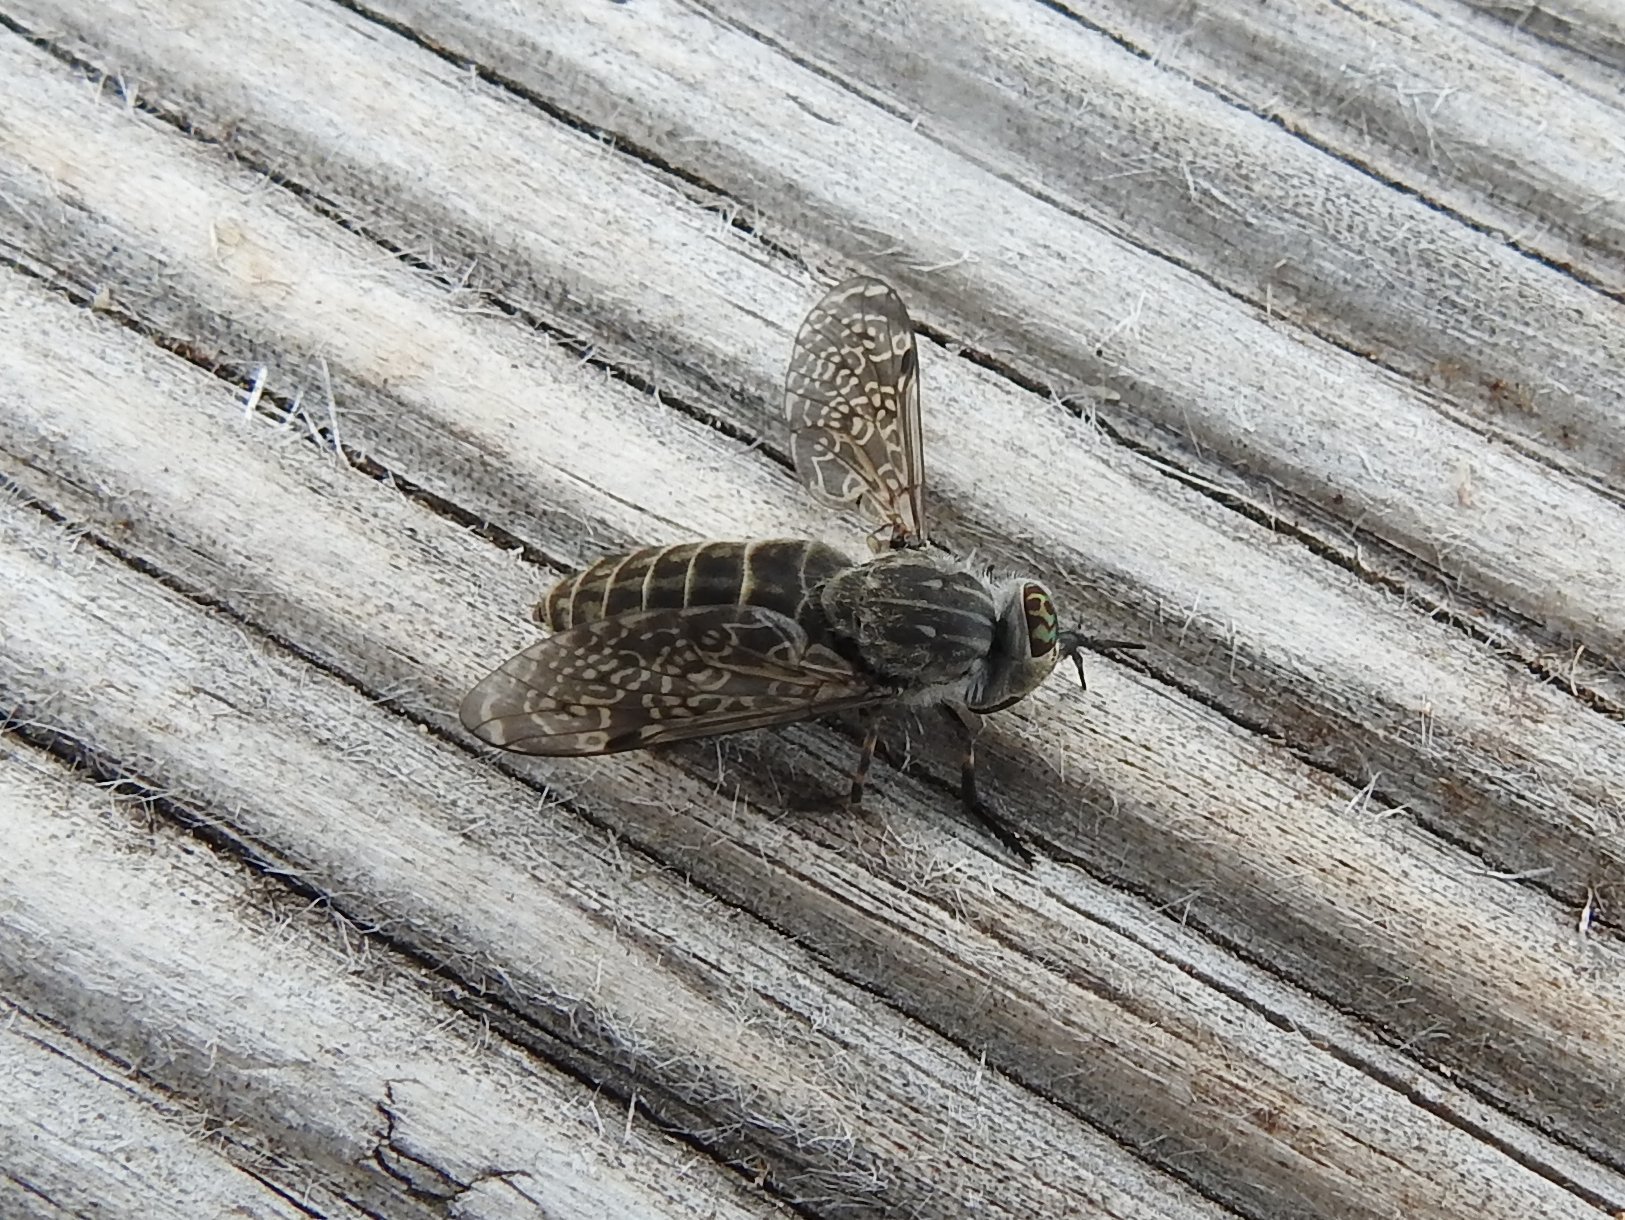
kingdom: Animalia
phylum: Arthropoda
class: Insecta
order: Diptera
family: Tabanidae
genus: Haematopota
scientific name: Haematopota pluvialis
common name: Common horse fly
